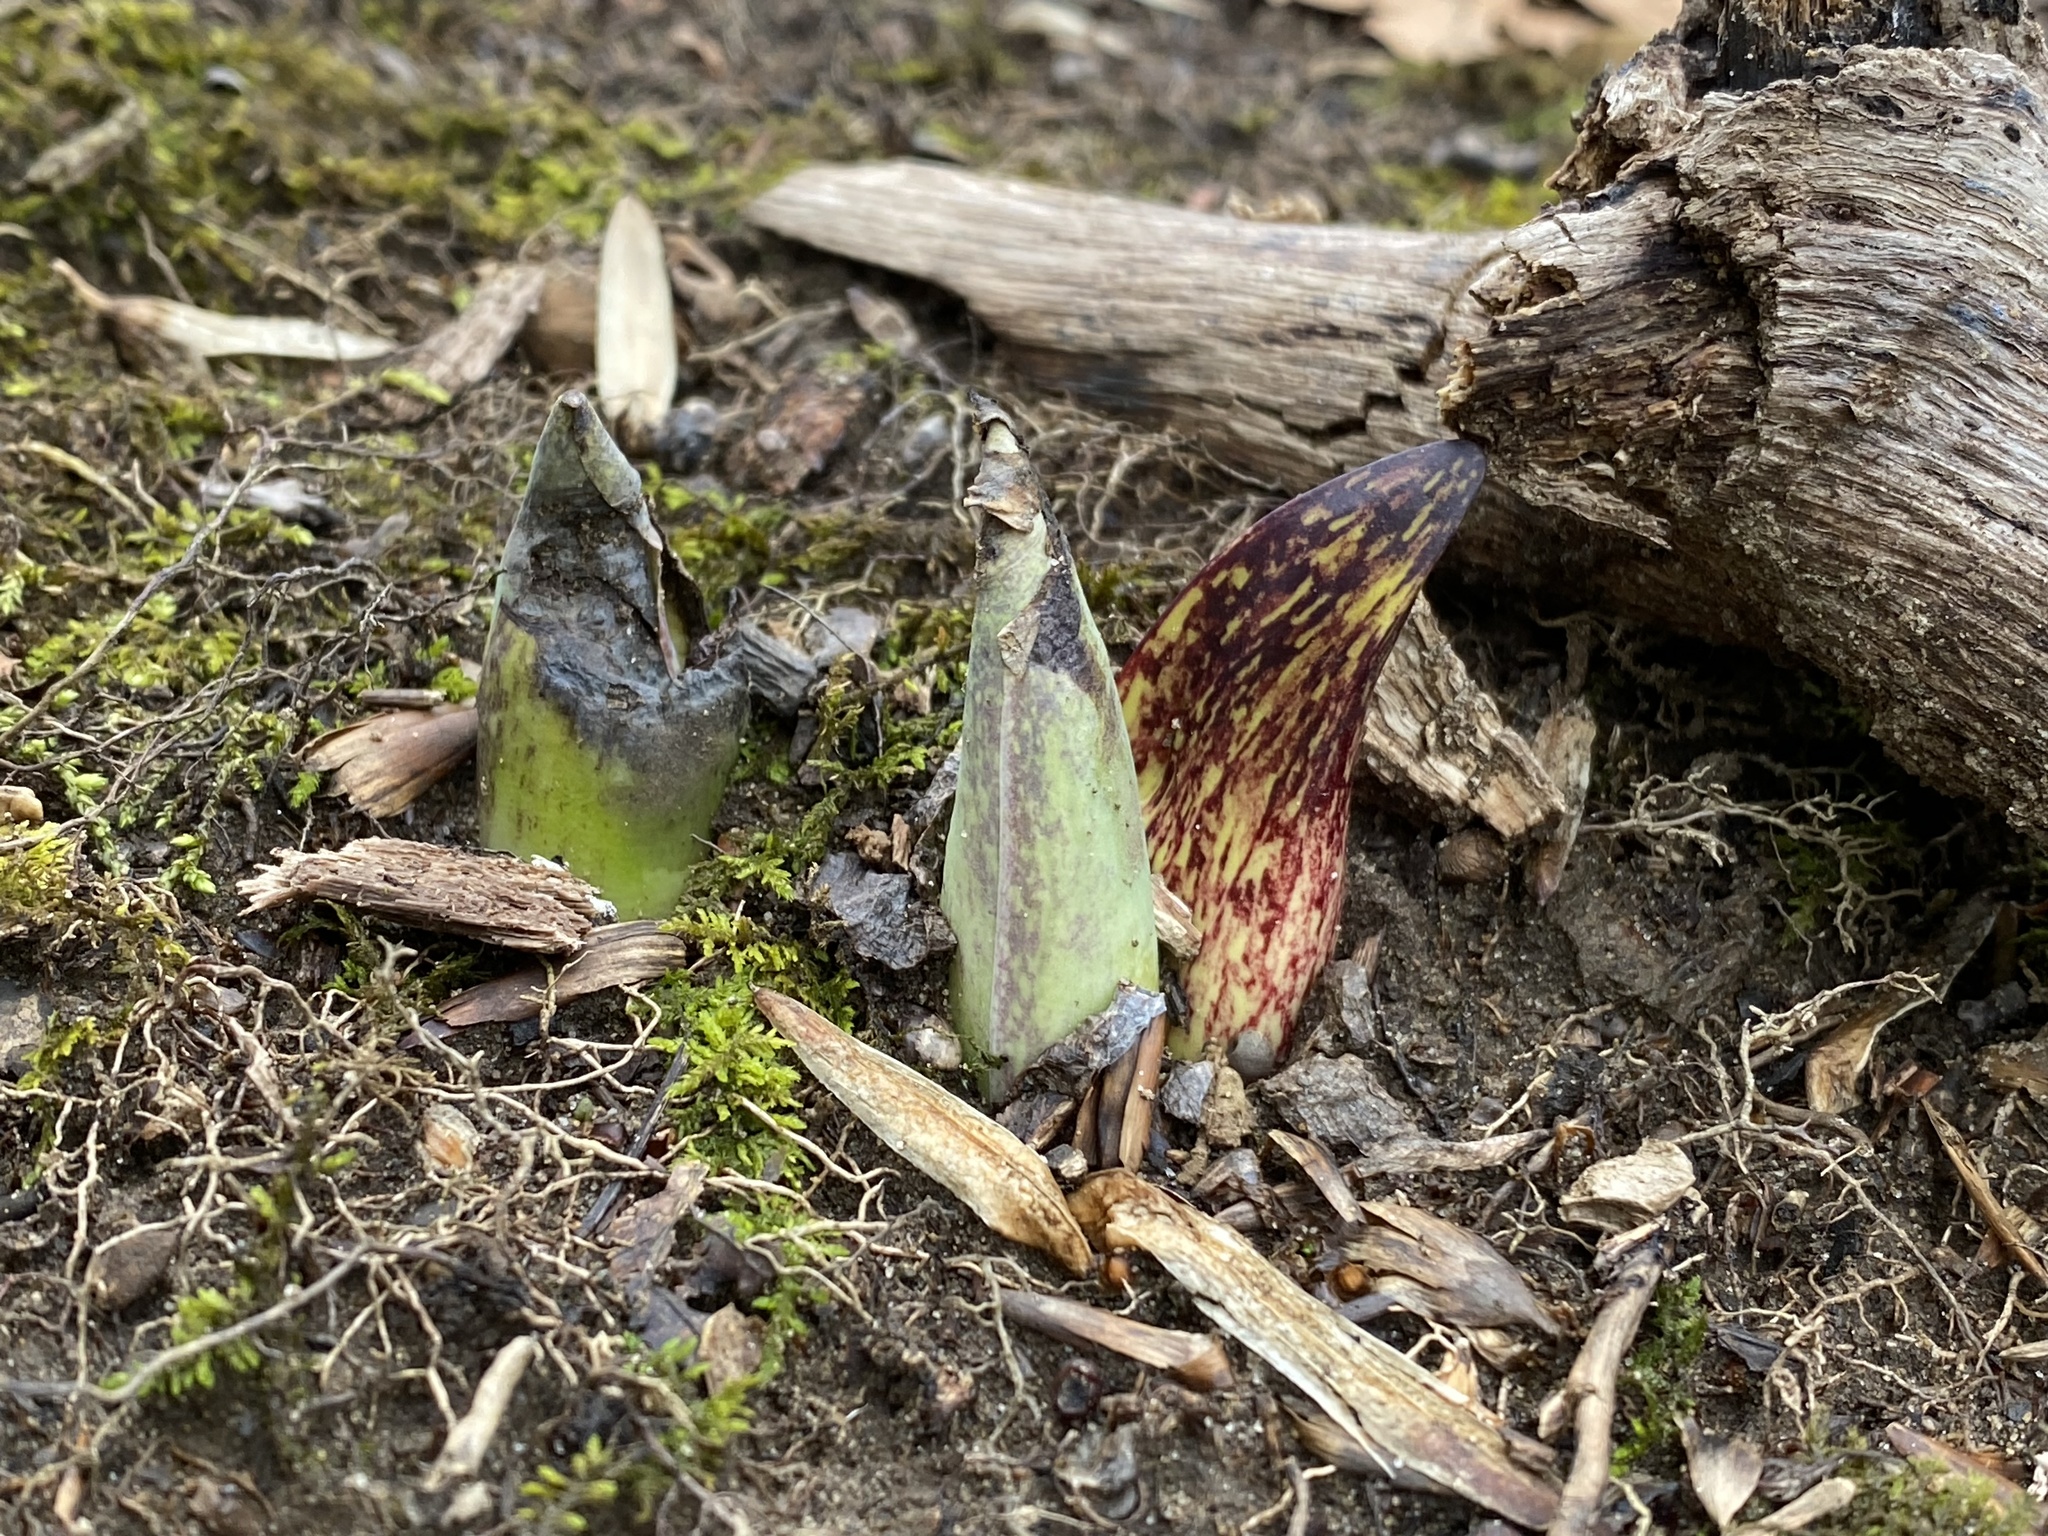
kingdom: Plantae
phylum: Tracheophyta
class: Liliopsida
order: Alismatales
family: Araceae
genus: Symplocarpus
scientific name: Symplocarpus foetidus
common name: Eastern skunk cabbage
